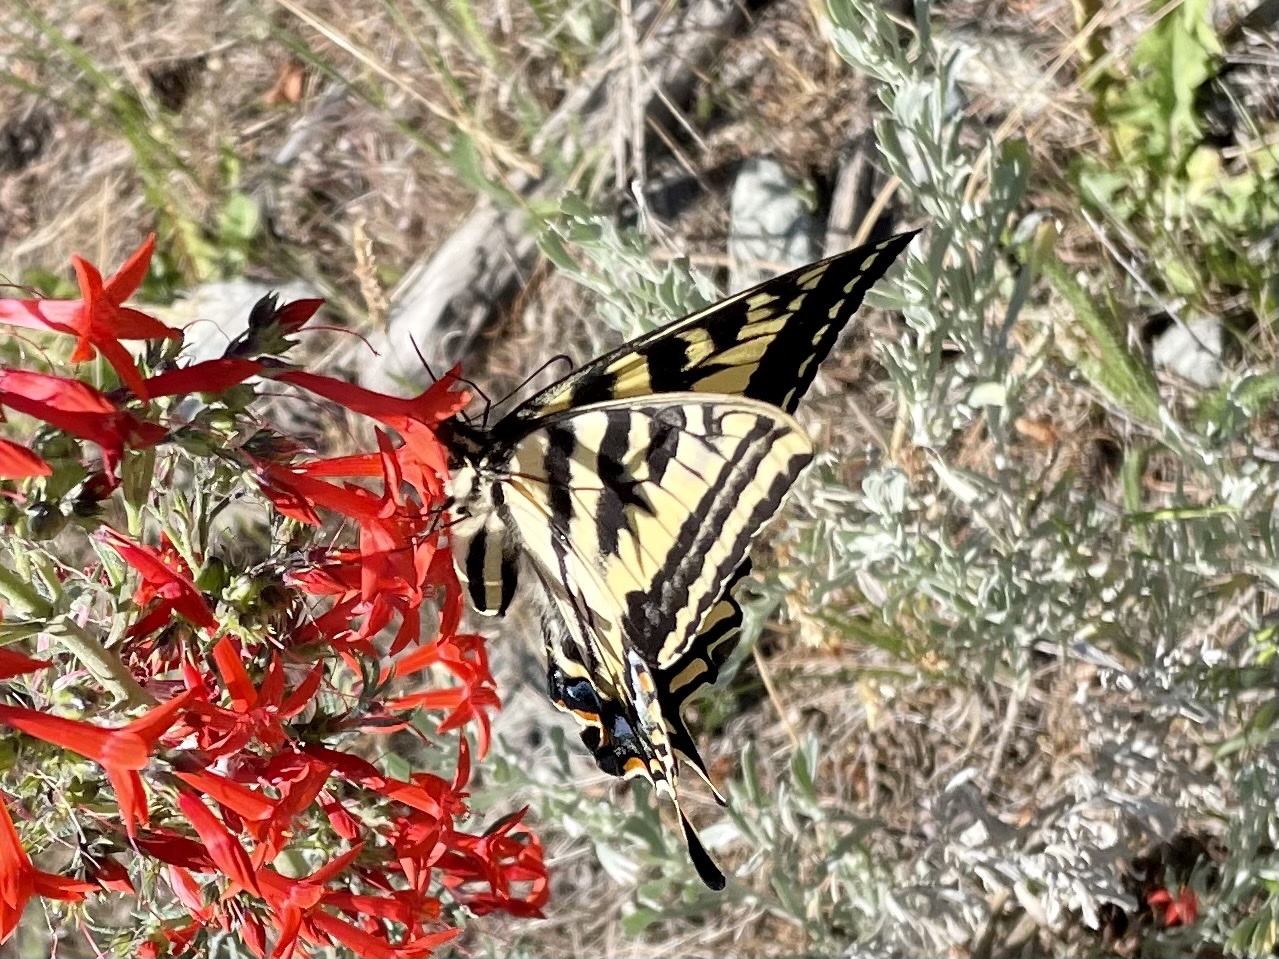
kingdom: Animalia
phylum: Arthropoda
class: Insecta
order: Lepidoptera
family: Papilionidae
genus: Papilio
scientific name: Papilio canadensis
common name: Canadian tiger swallowtail
